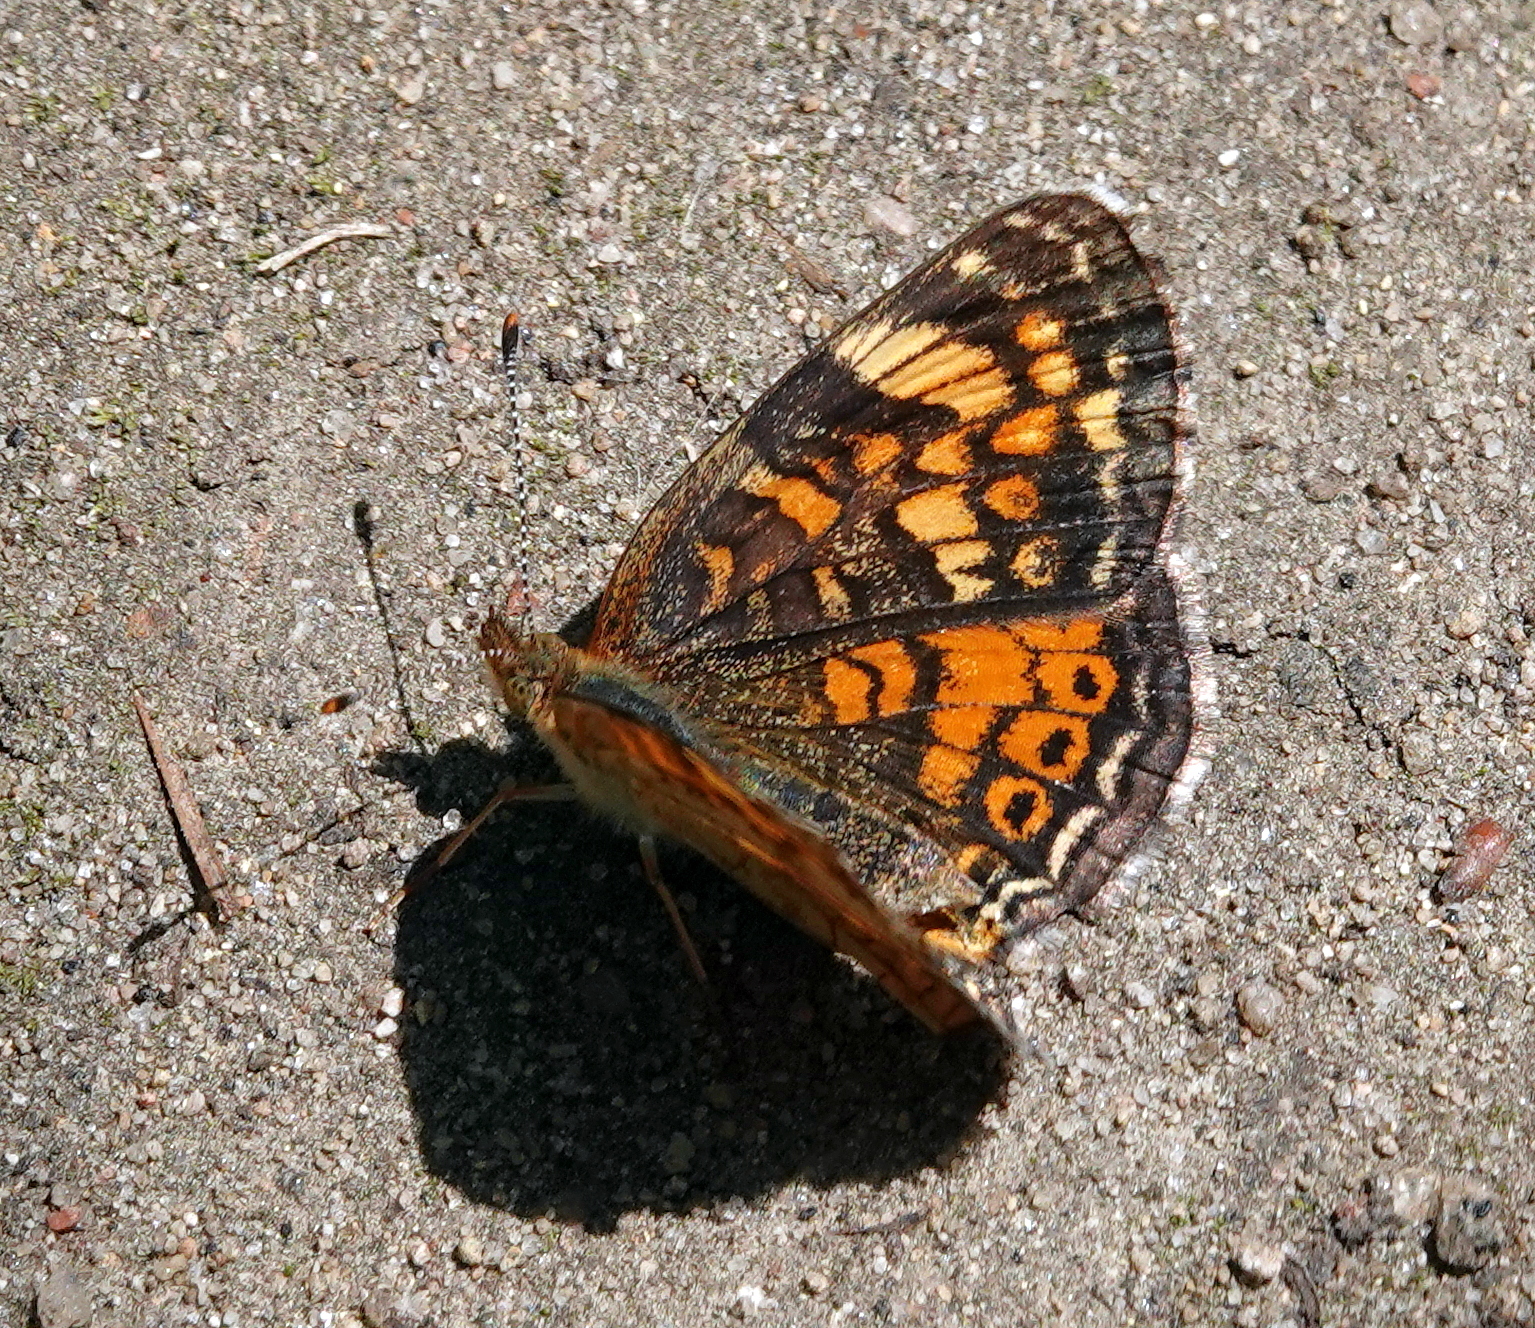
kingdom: Animalia
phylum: Arthropoda
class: Insecta
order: Lepidoptera
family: Nymphalidae
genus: Phyciodes
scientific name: Phyciodes tharos
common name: Pearl crescent
